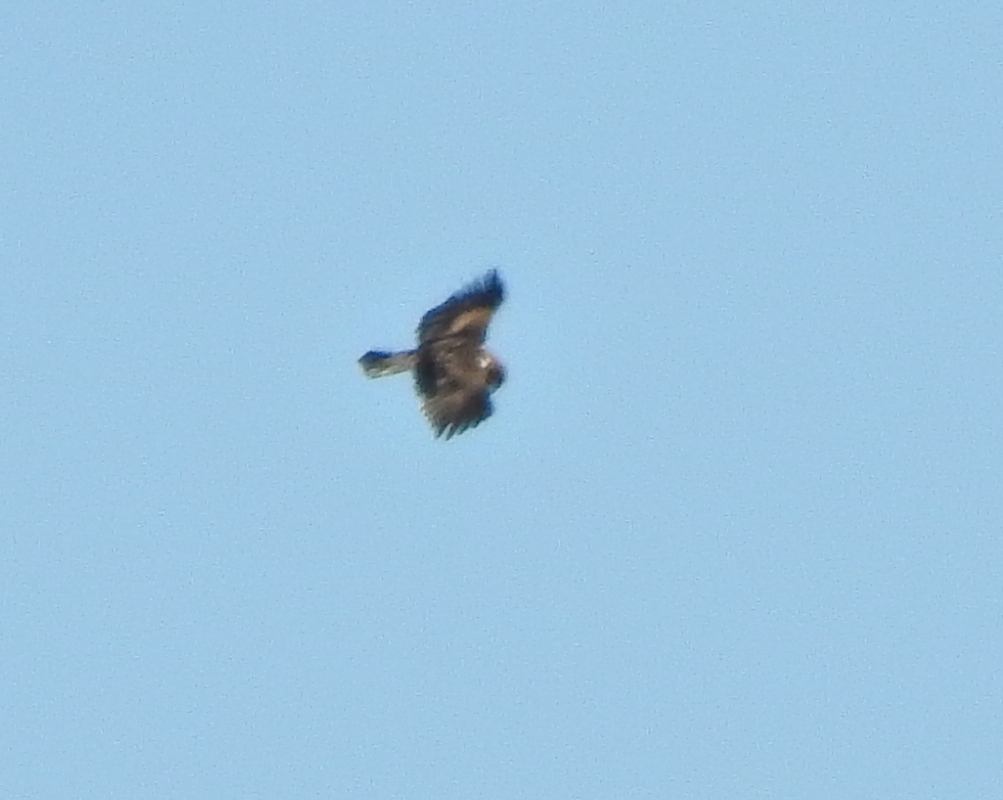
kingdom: Animalia
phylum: Chordata
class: Aves
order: Accipitriformes
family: Accipitridae
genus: Hieraaetus
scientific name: Hieraaetus pennatus
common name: Booted eagle
